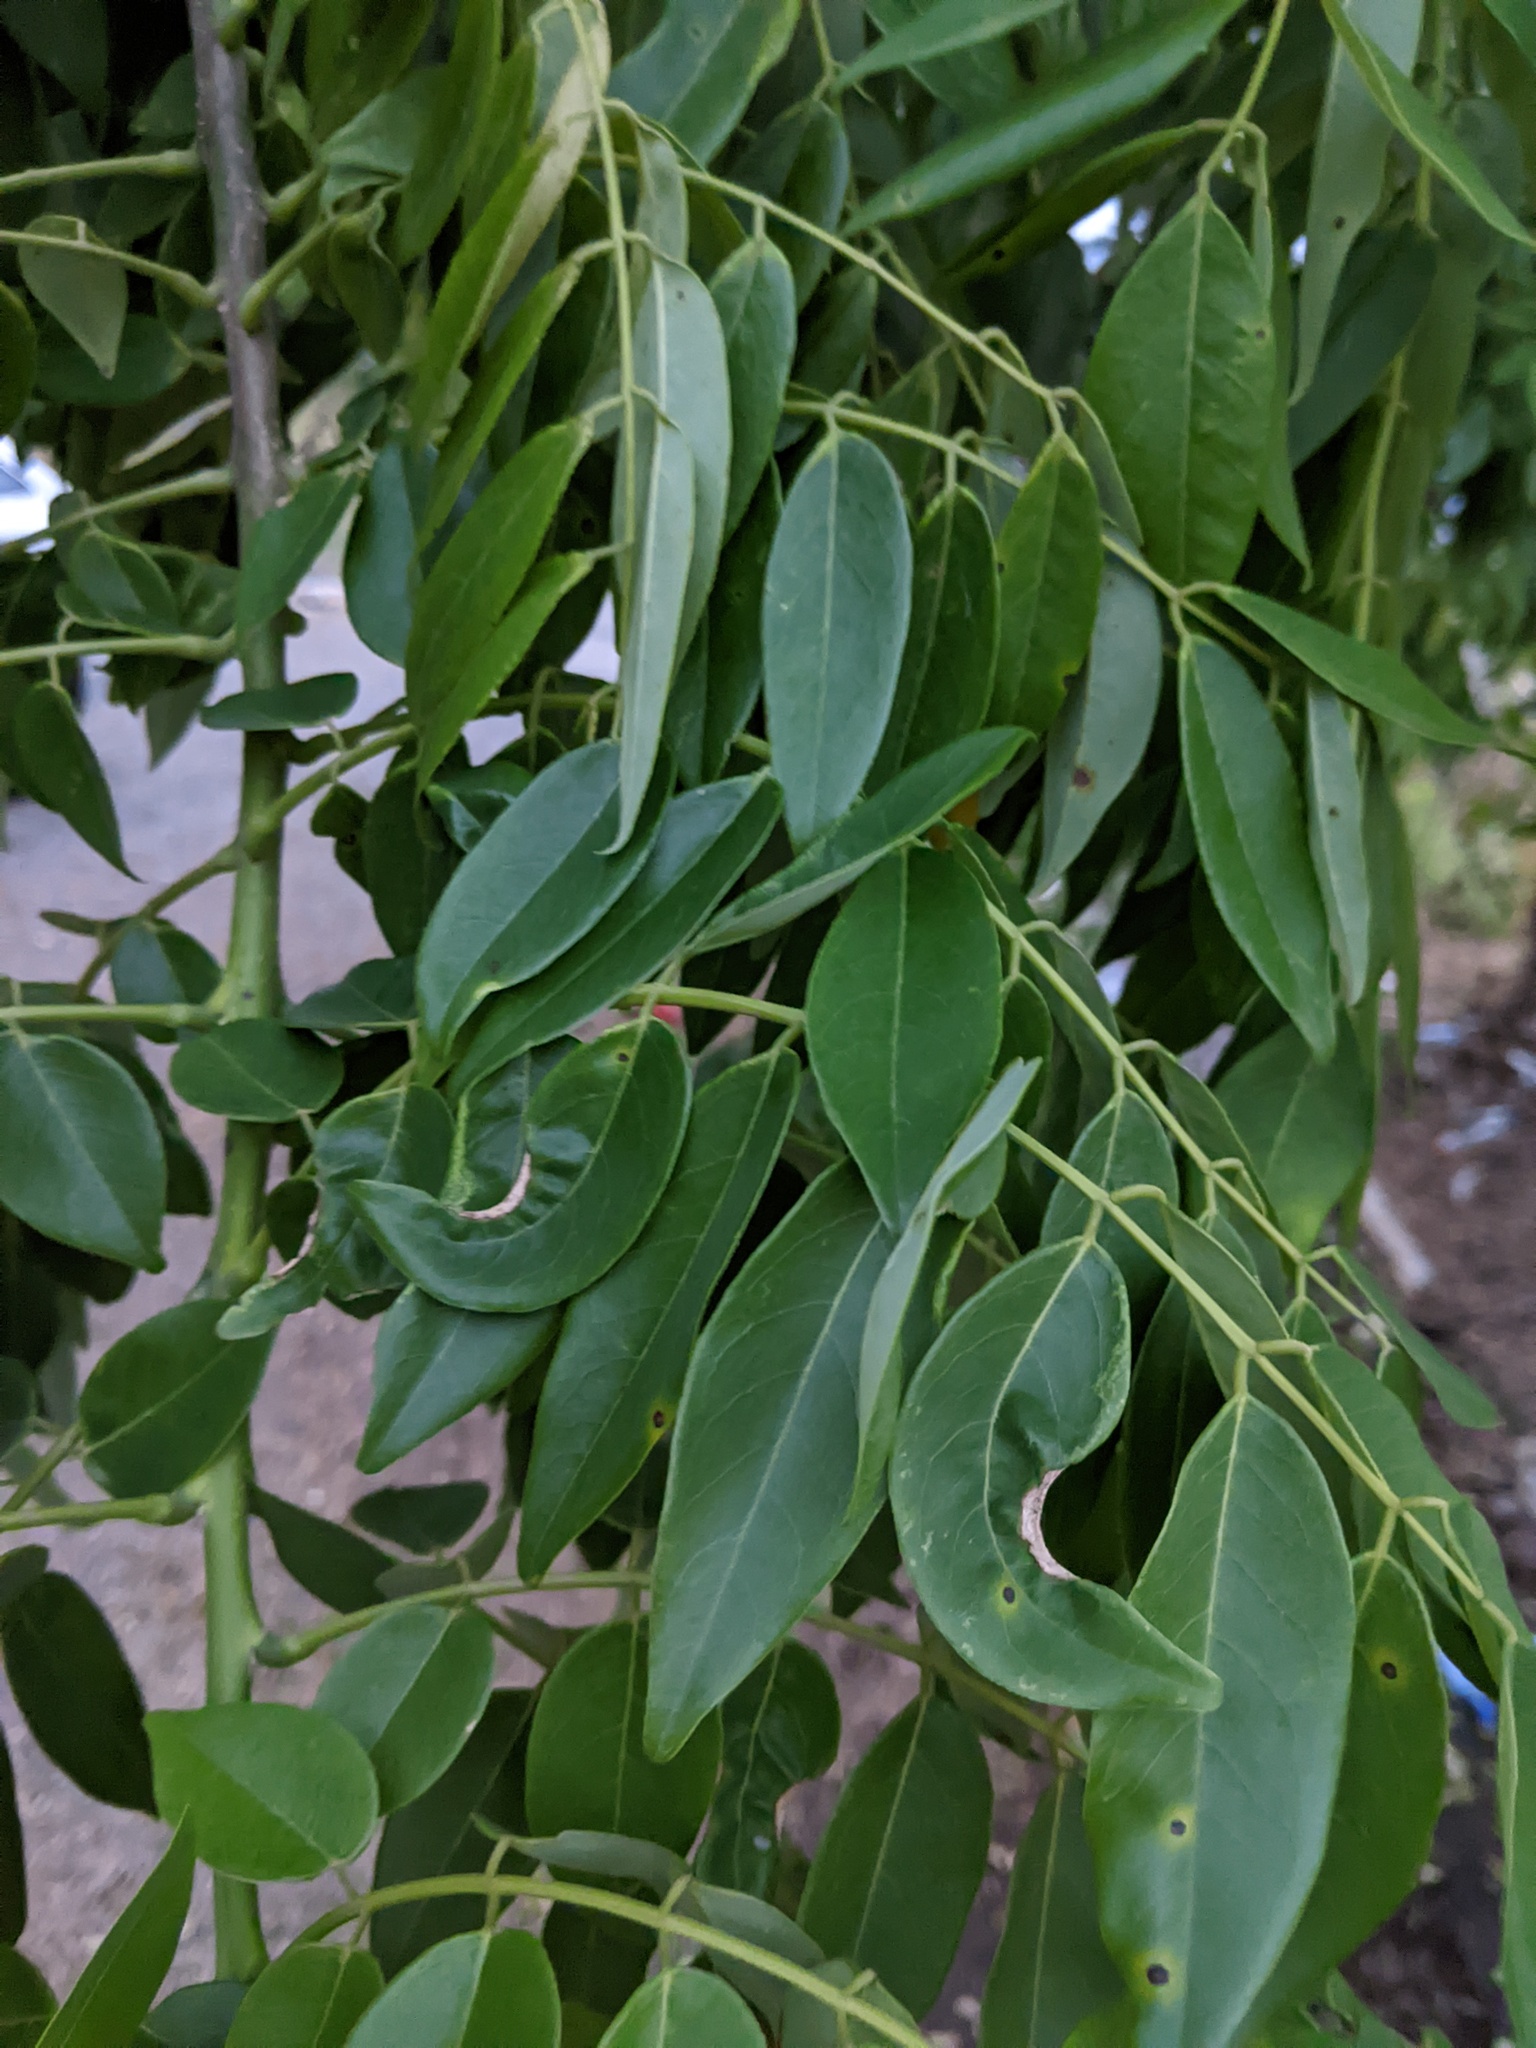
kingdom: Plantae
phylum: Tracheophyta
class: Magnoliopsida
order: Fabales
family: Fabaceae
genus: Gliricidia
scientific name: Gliricidia sepium
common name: Quickstick
